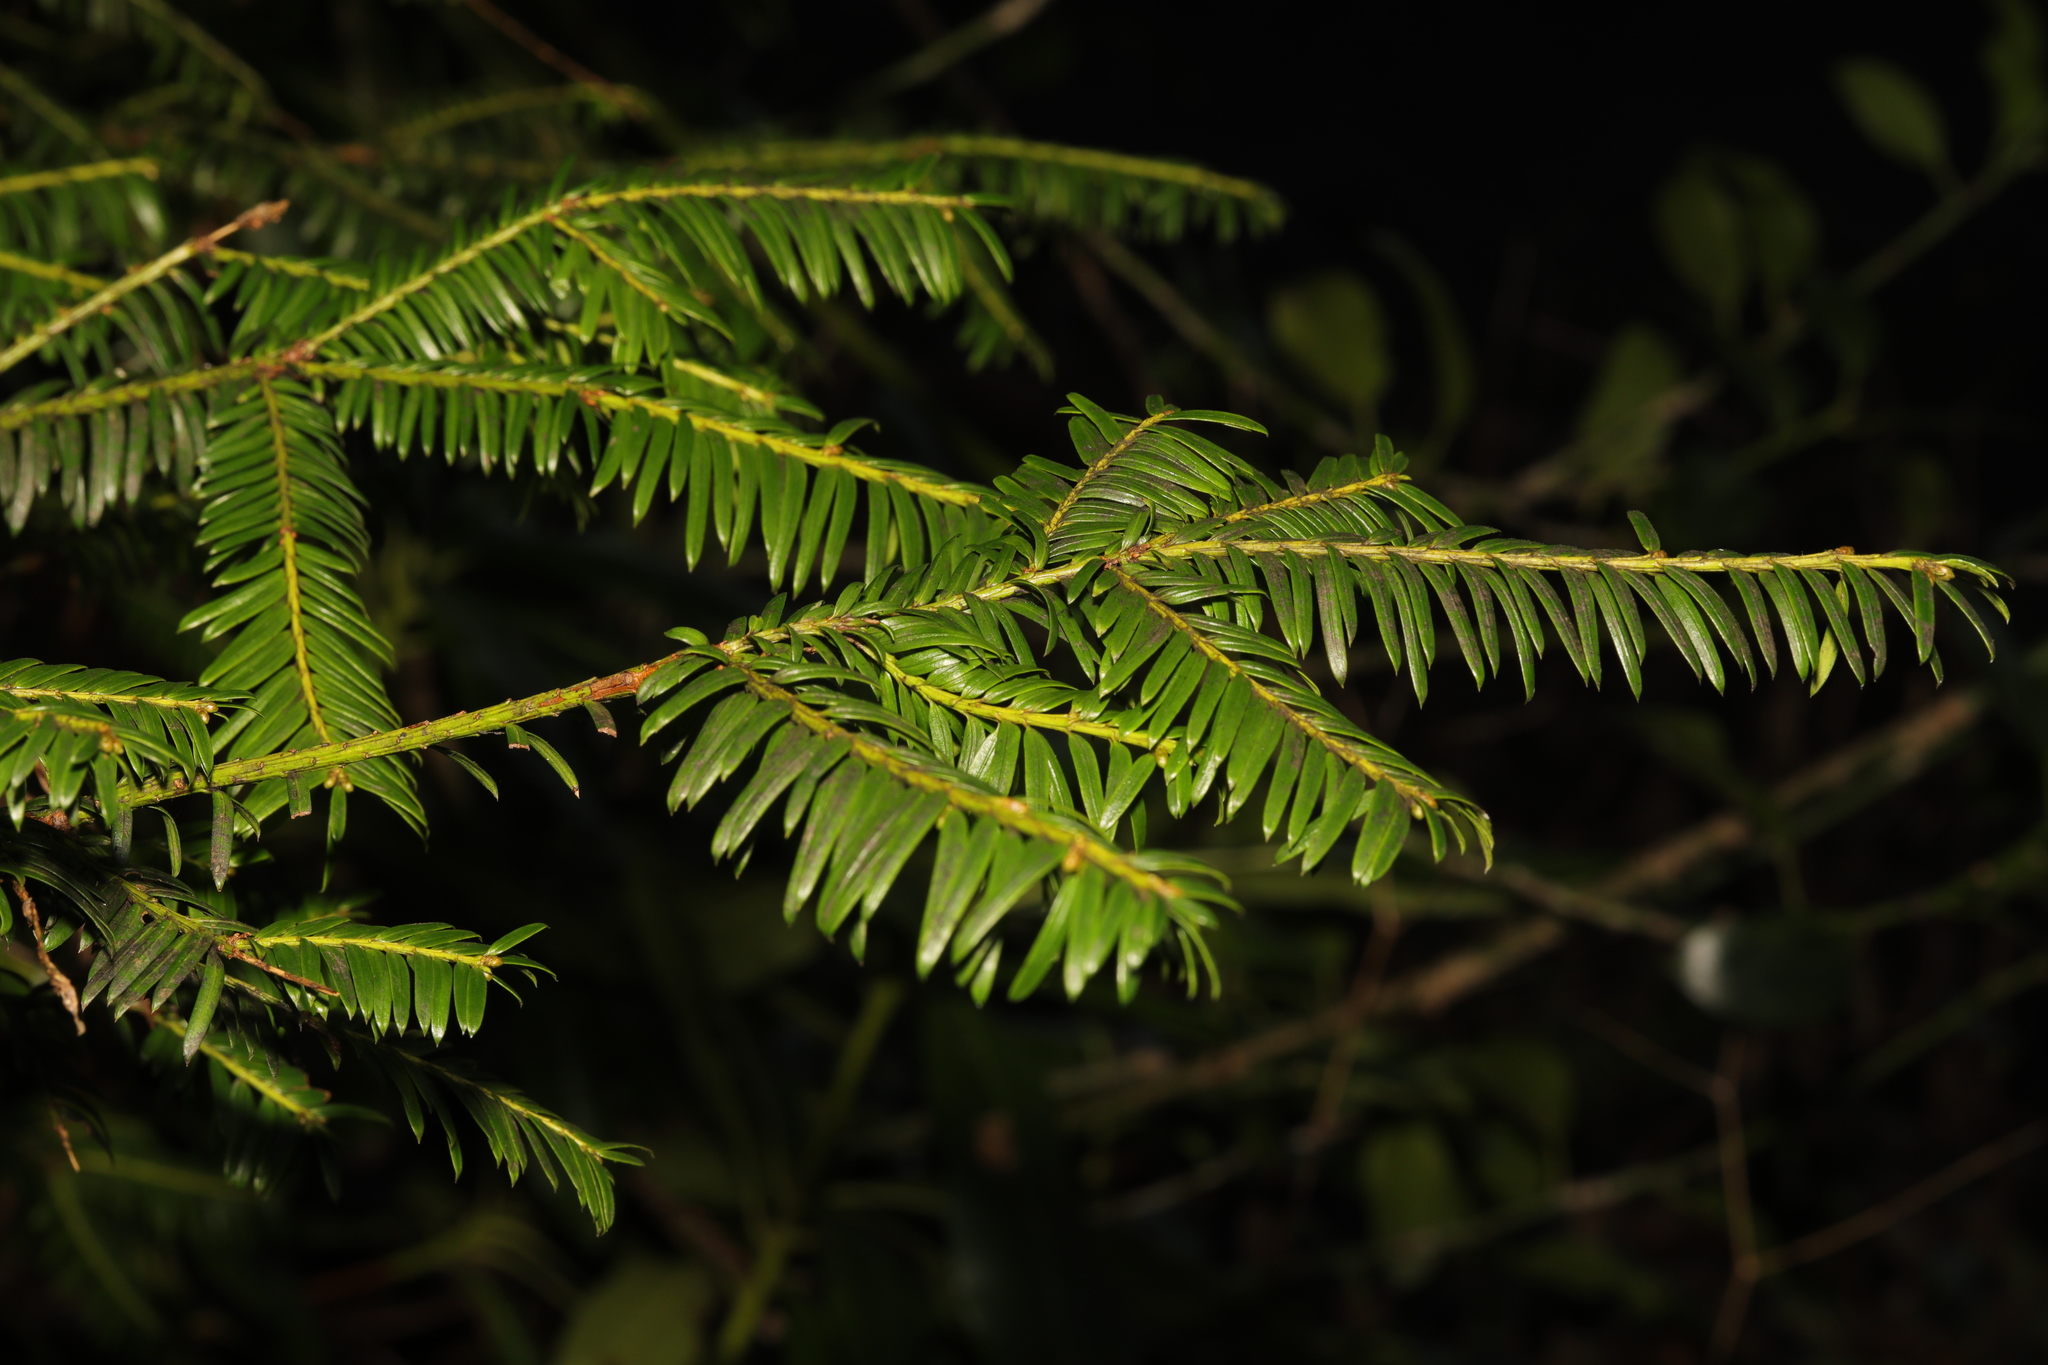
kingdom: Plantae
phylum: Tracheophyta
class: Pinopsida
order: Pinales
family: Taxaceae
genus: Taxus
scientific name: Taxus baccata
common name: Yew
